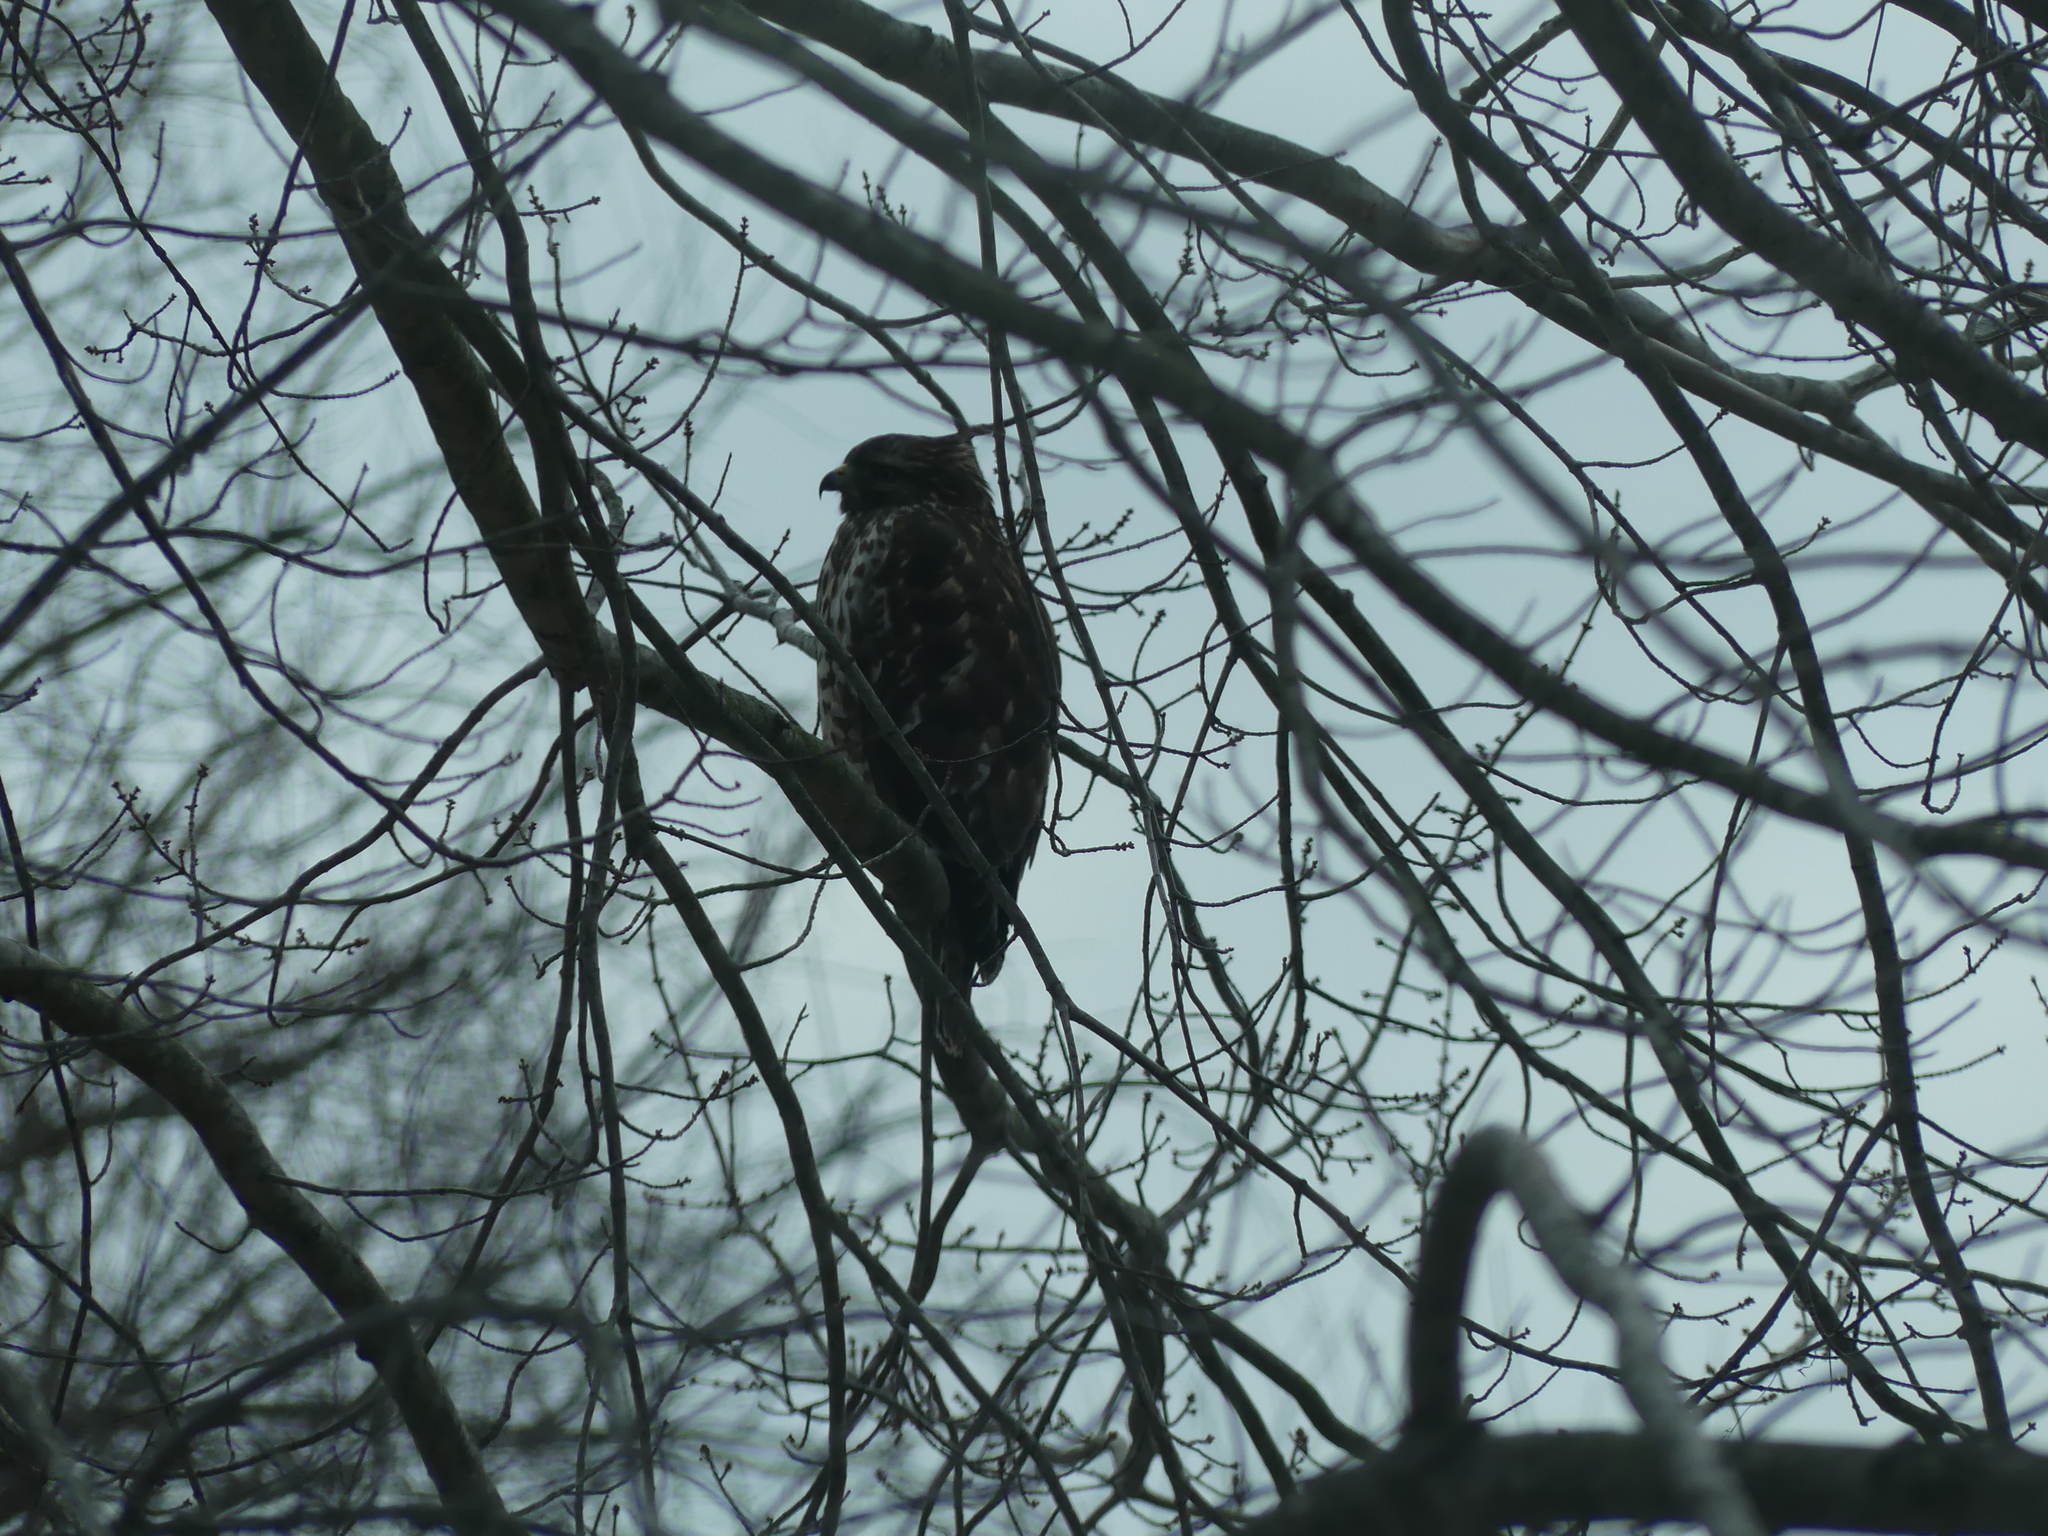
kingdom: Animalia
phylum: Chordata
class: Aves
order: Accipitriformes
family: Accipitridae
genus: Buteo
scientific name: Buteo lineatus
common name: Red-shouldered hawk
